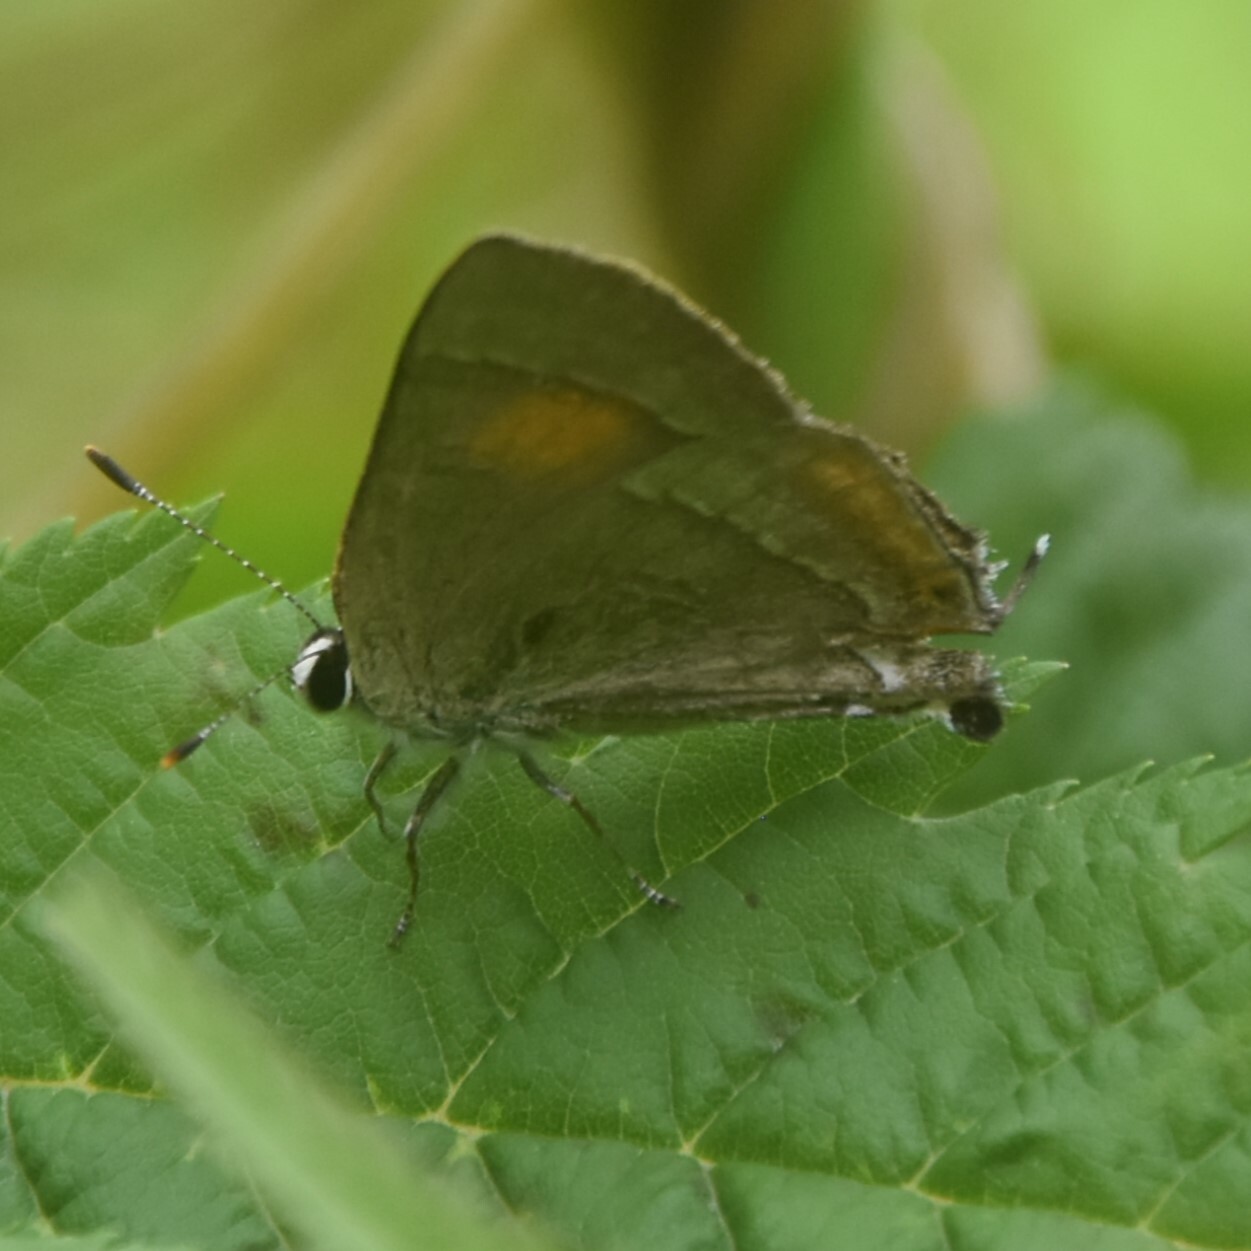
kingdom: Animalia
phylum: Arthropoda
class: Insecta
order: Lepidoptera
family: Lycaenidae
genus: Rapala
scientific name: Rapala selira
